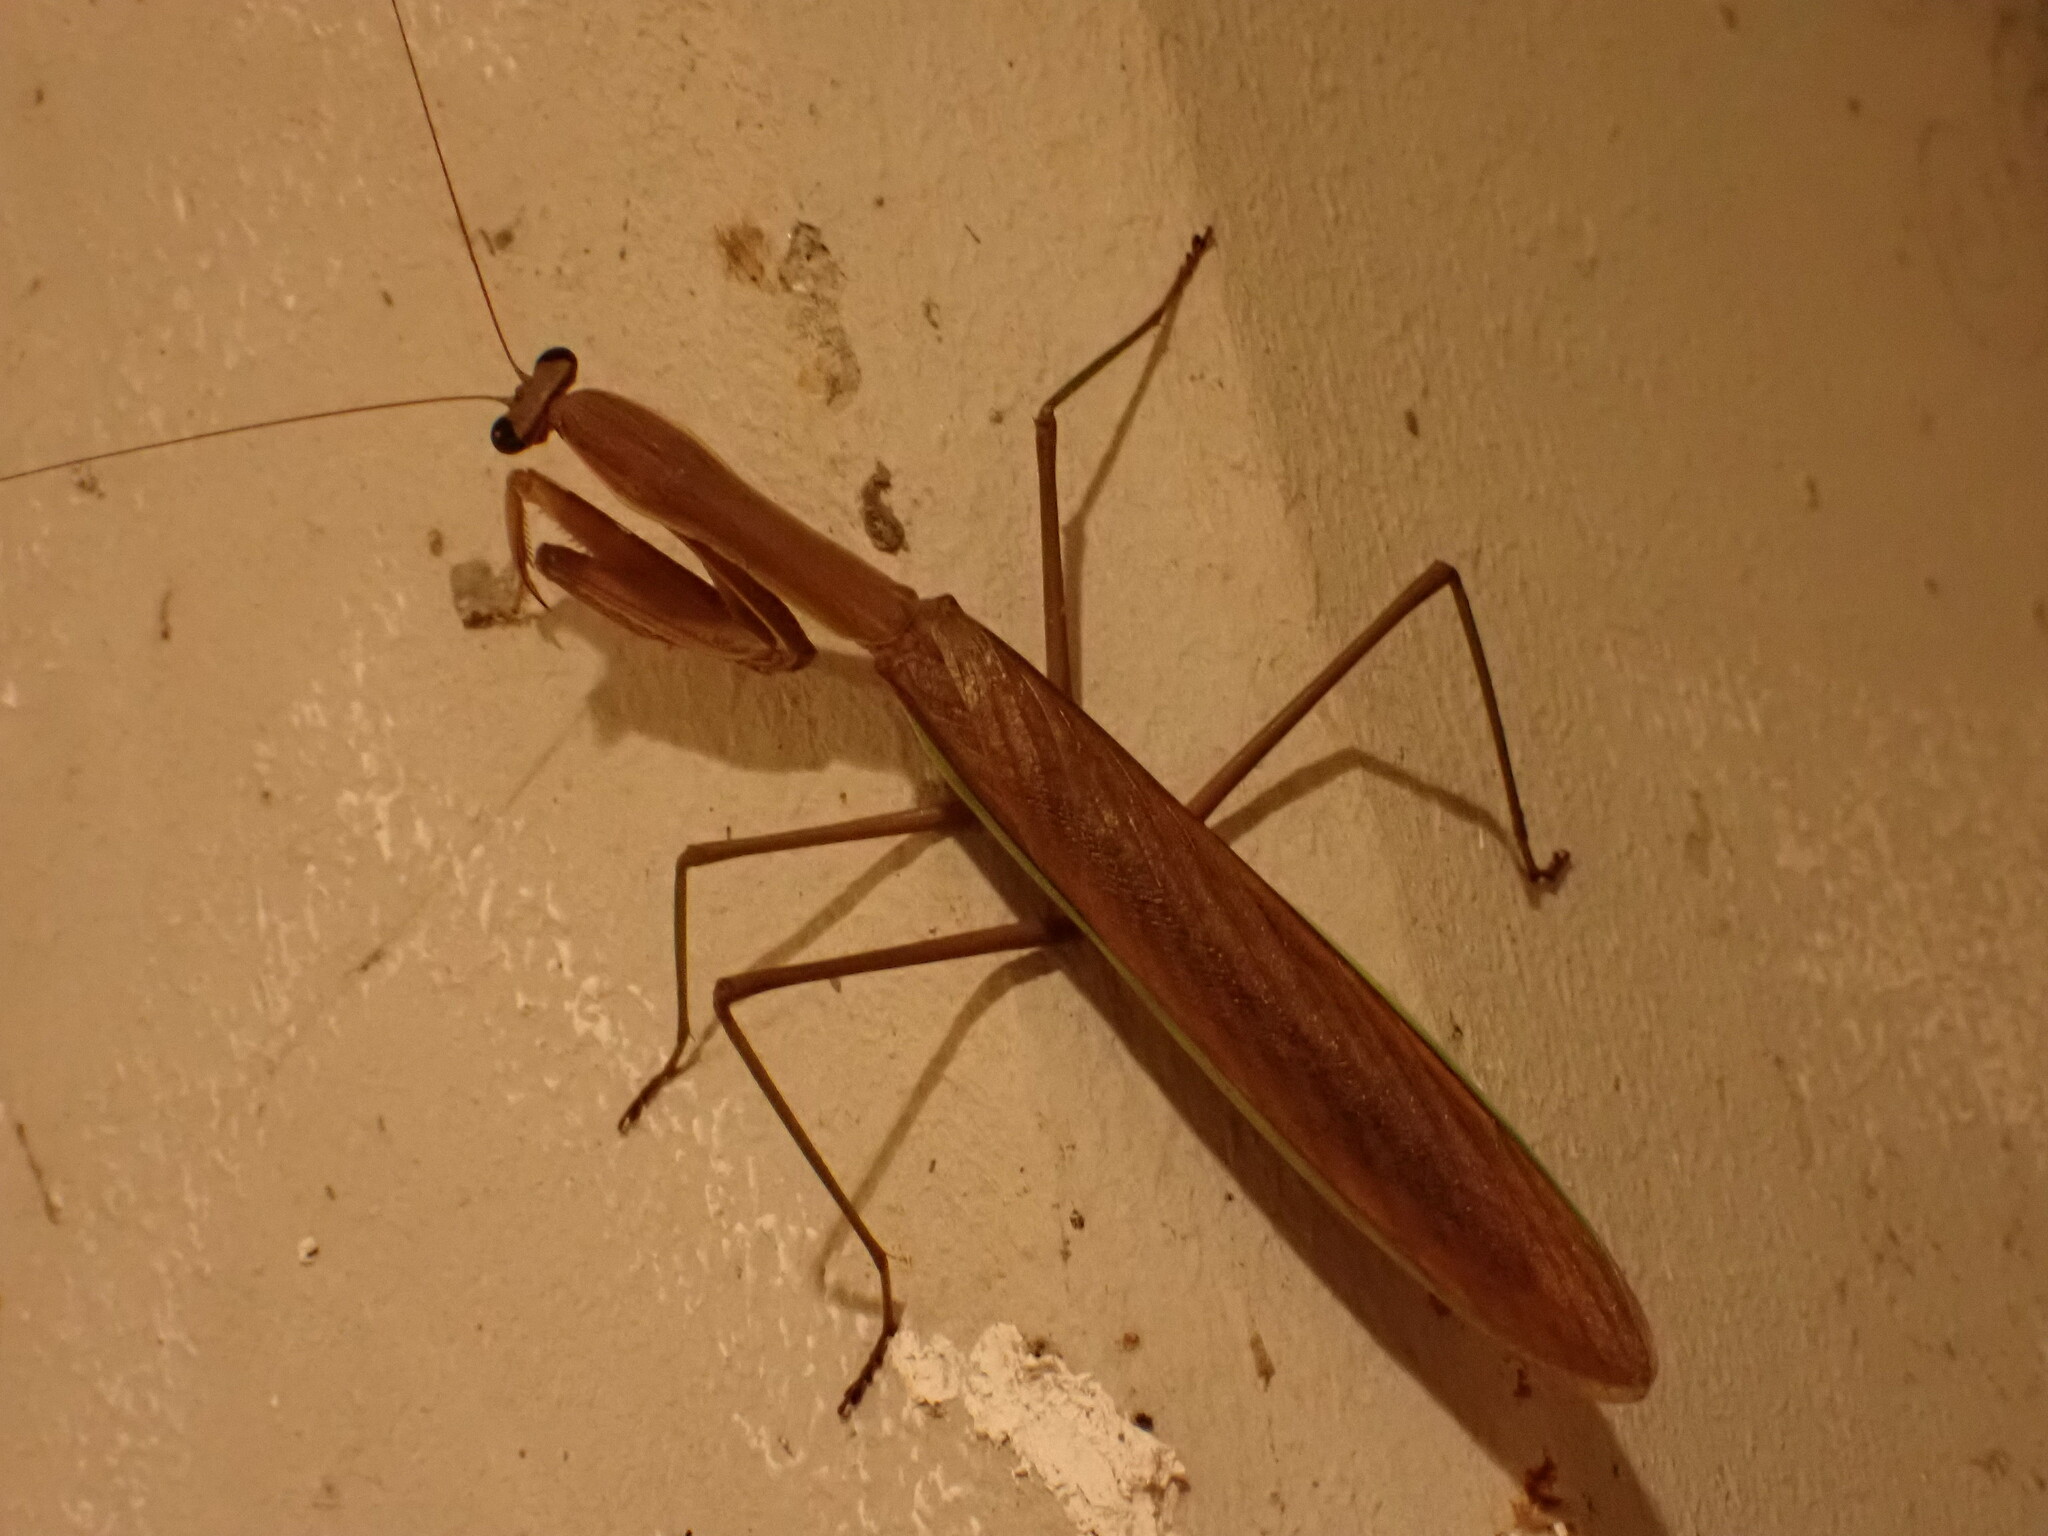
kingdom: Animalia
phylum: Arthropoda
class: Insecta
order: Mantodea
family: Mantidae
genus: Tenodera
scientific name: Tenodera sinensis
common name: Chinese mantis
